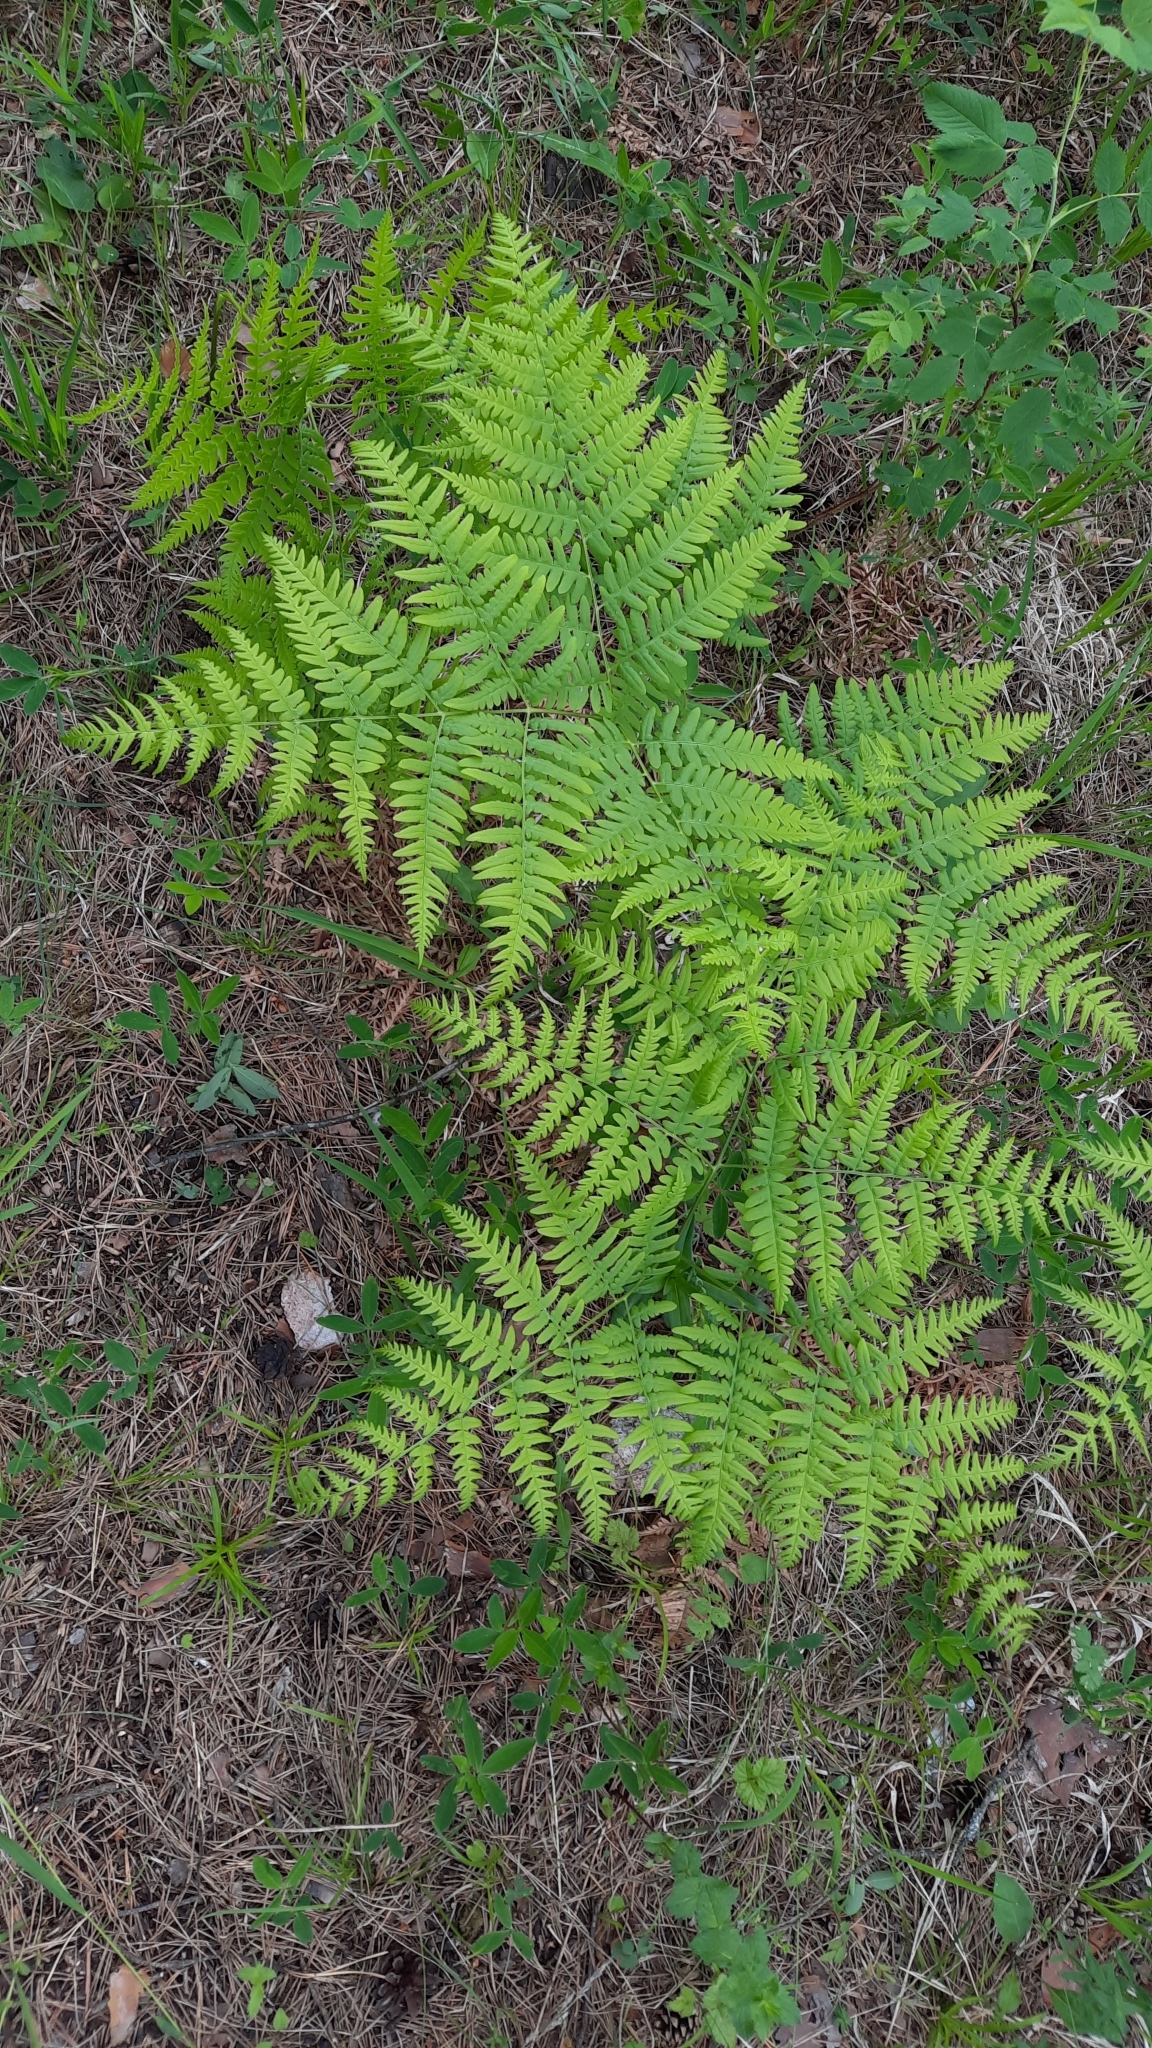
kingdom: Plantae
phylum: Tracheophyta
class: Polypodiopsida
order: Polypodiales
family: Dennstaedtiaceae
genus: Pteridium
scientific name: Pteridium aquilinum
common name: Bracken
